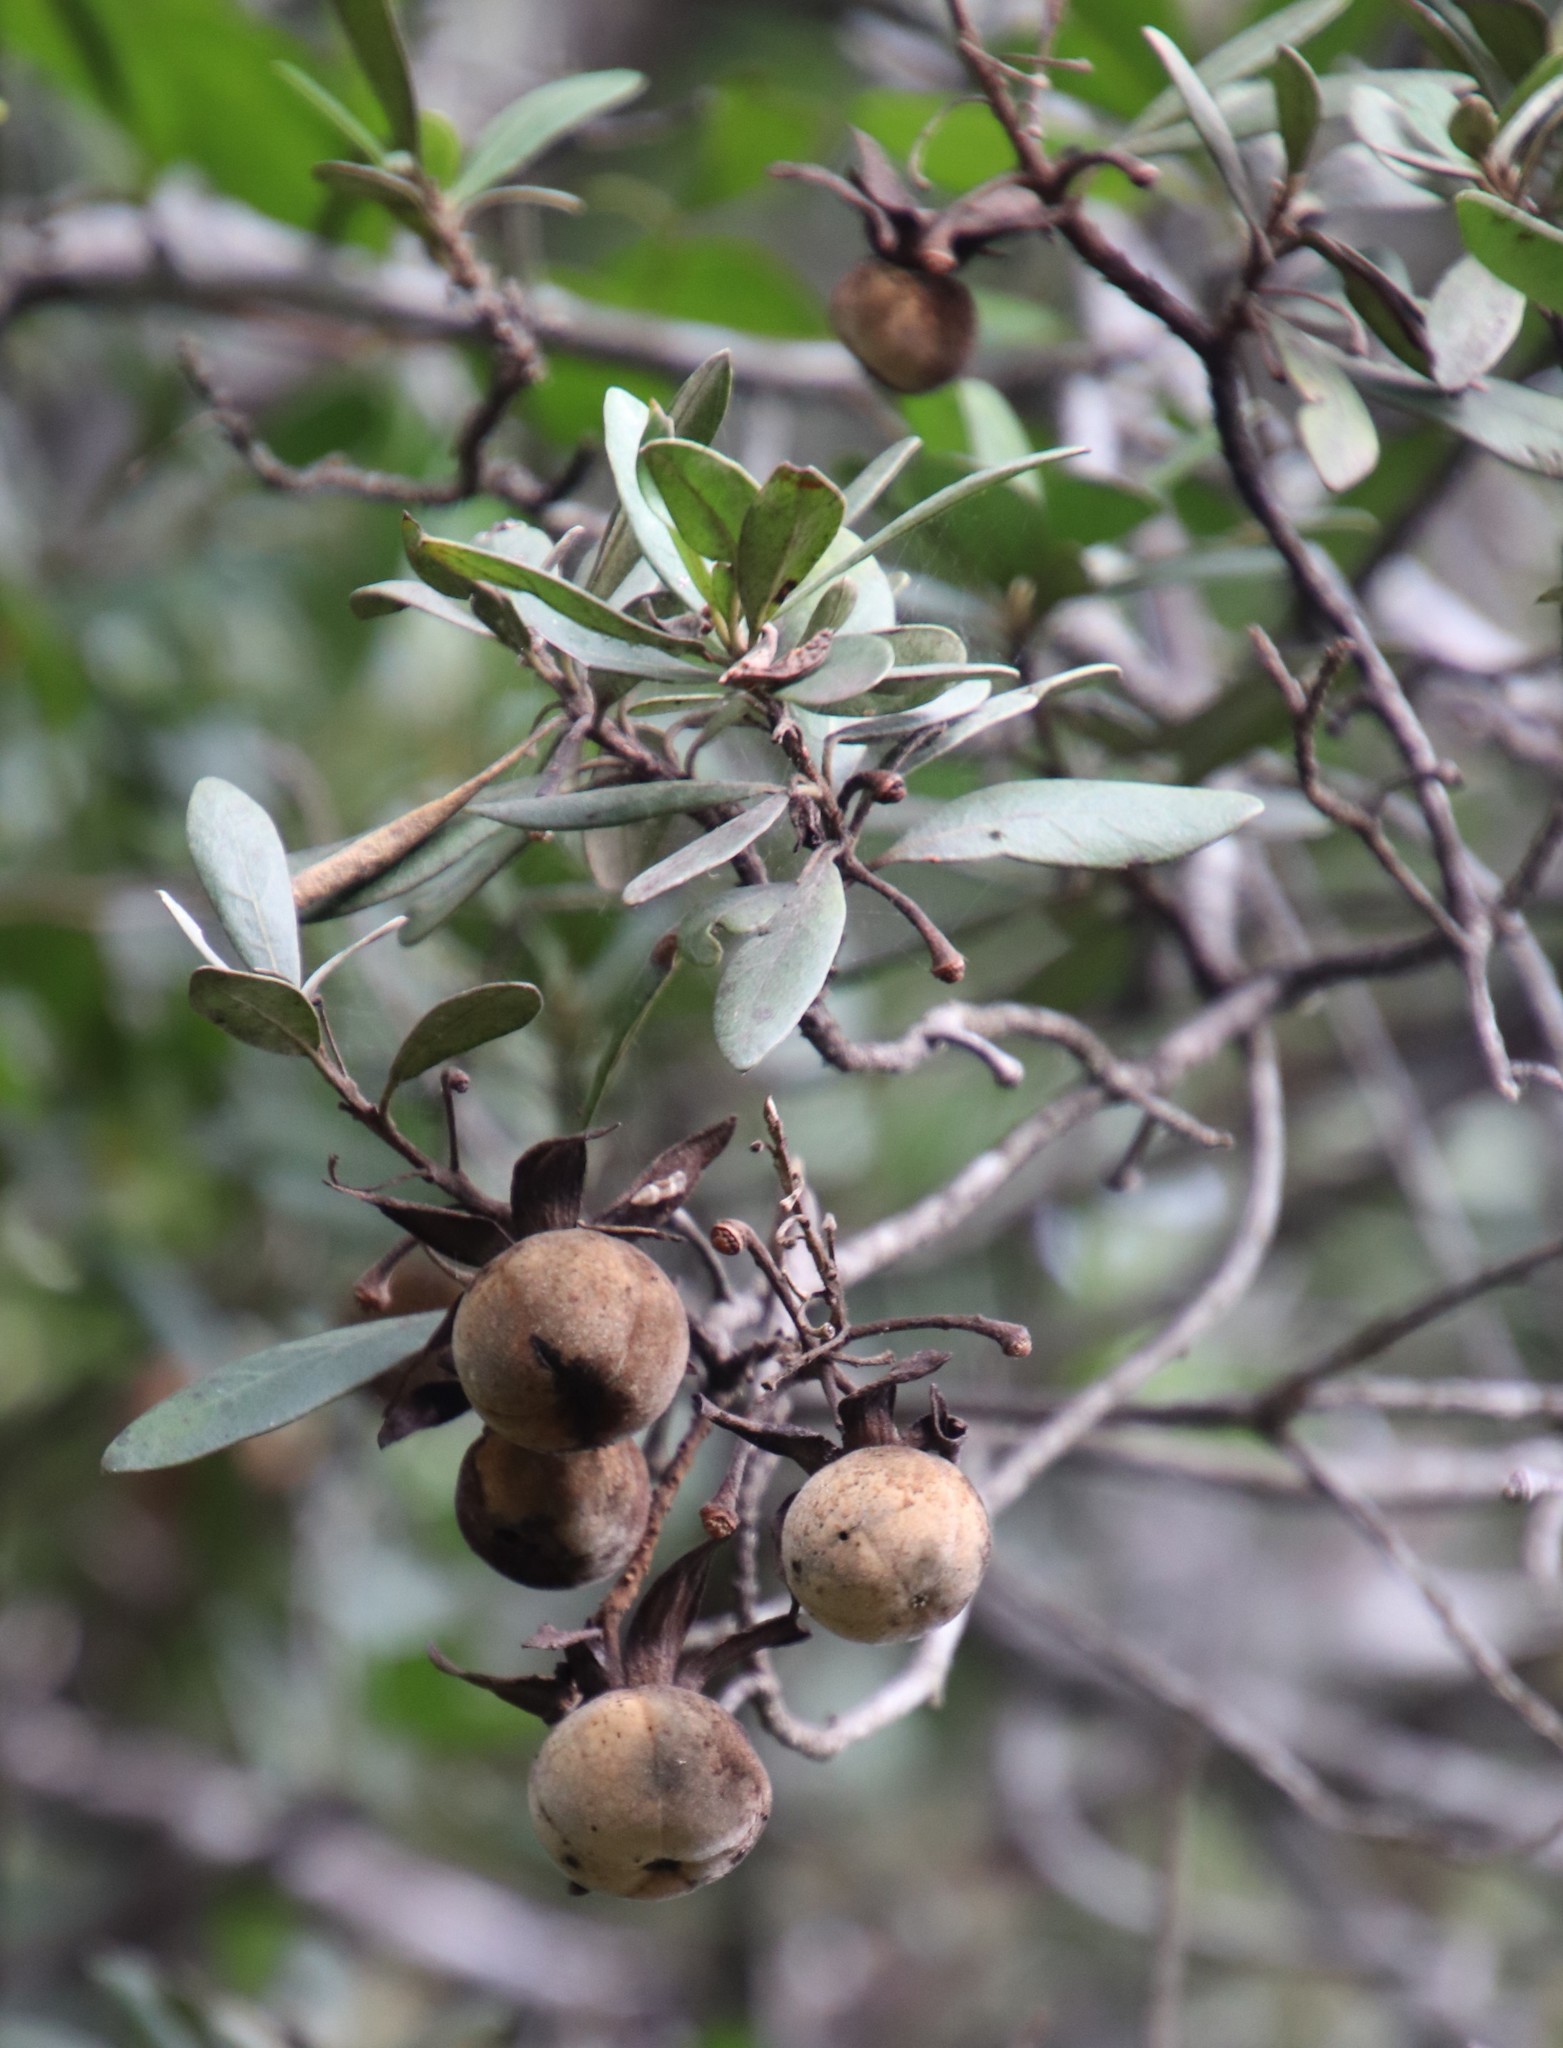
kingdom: Plantae
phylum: Tracheophyta
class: Magnoliopsida
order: Ericales
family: Ebenaceae
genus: Diospyros
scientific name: Diospyros dichrophylla
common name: Common star-apple
